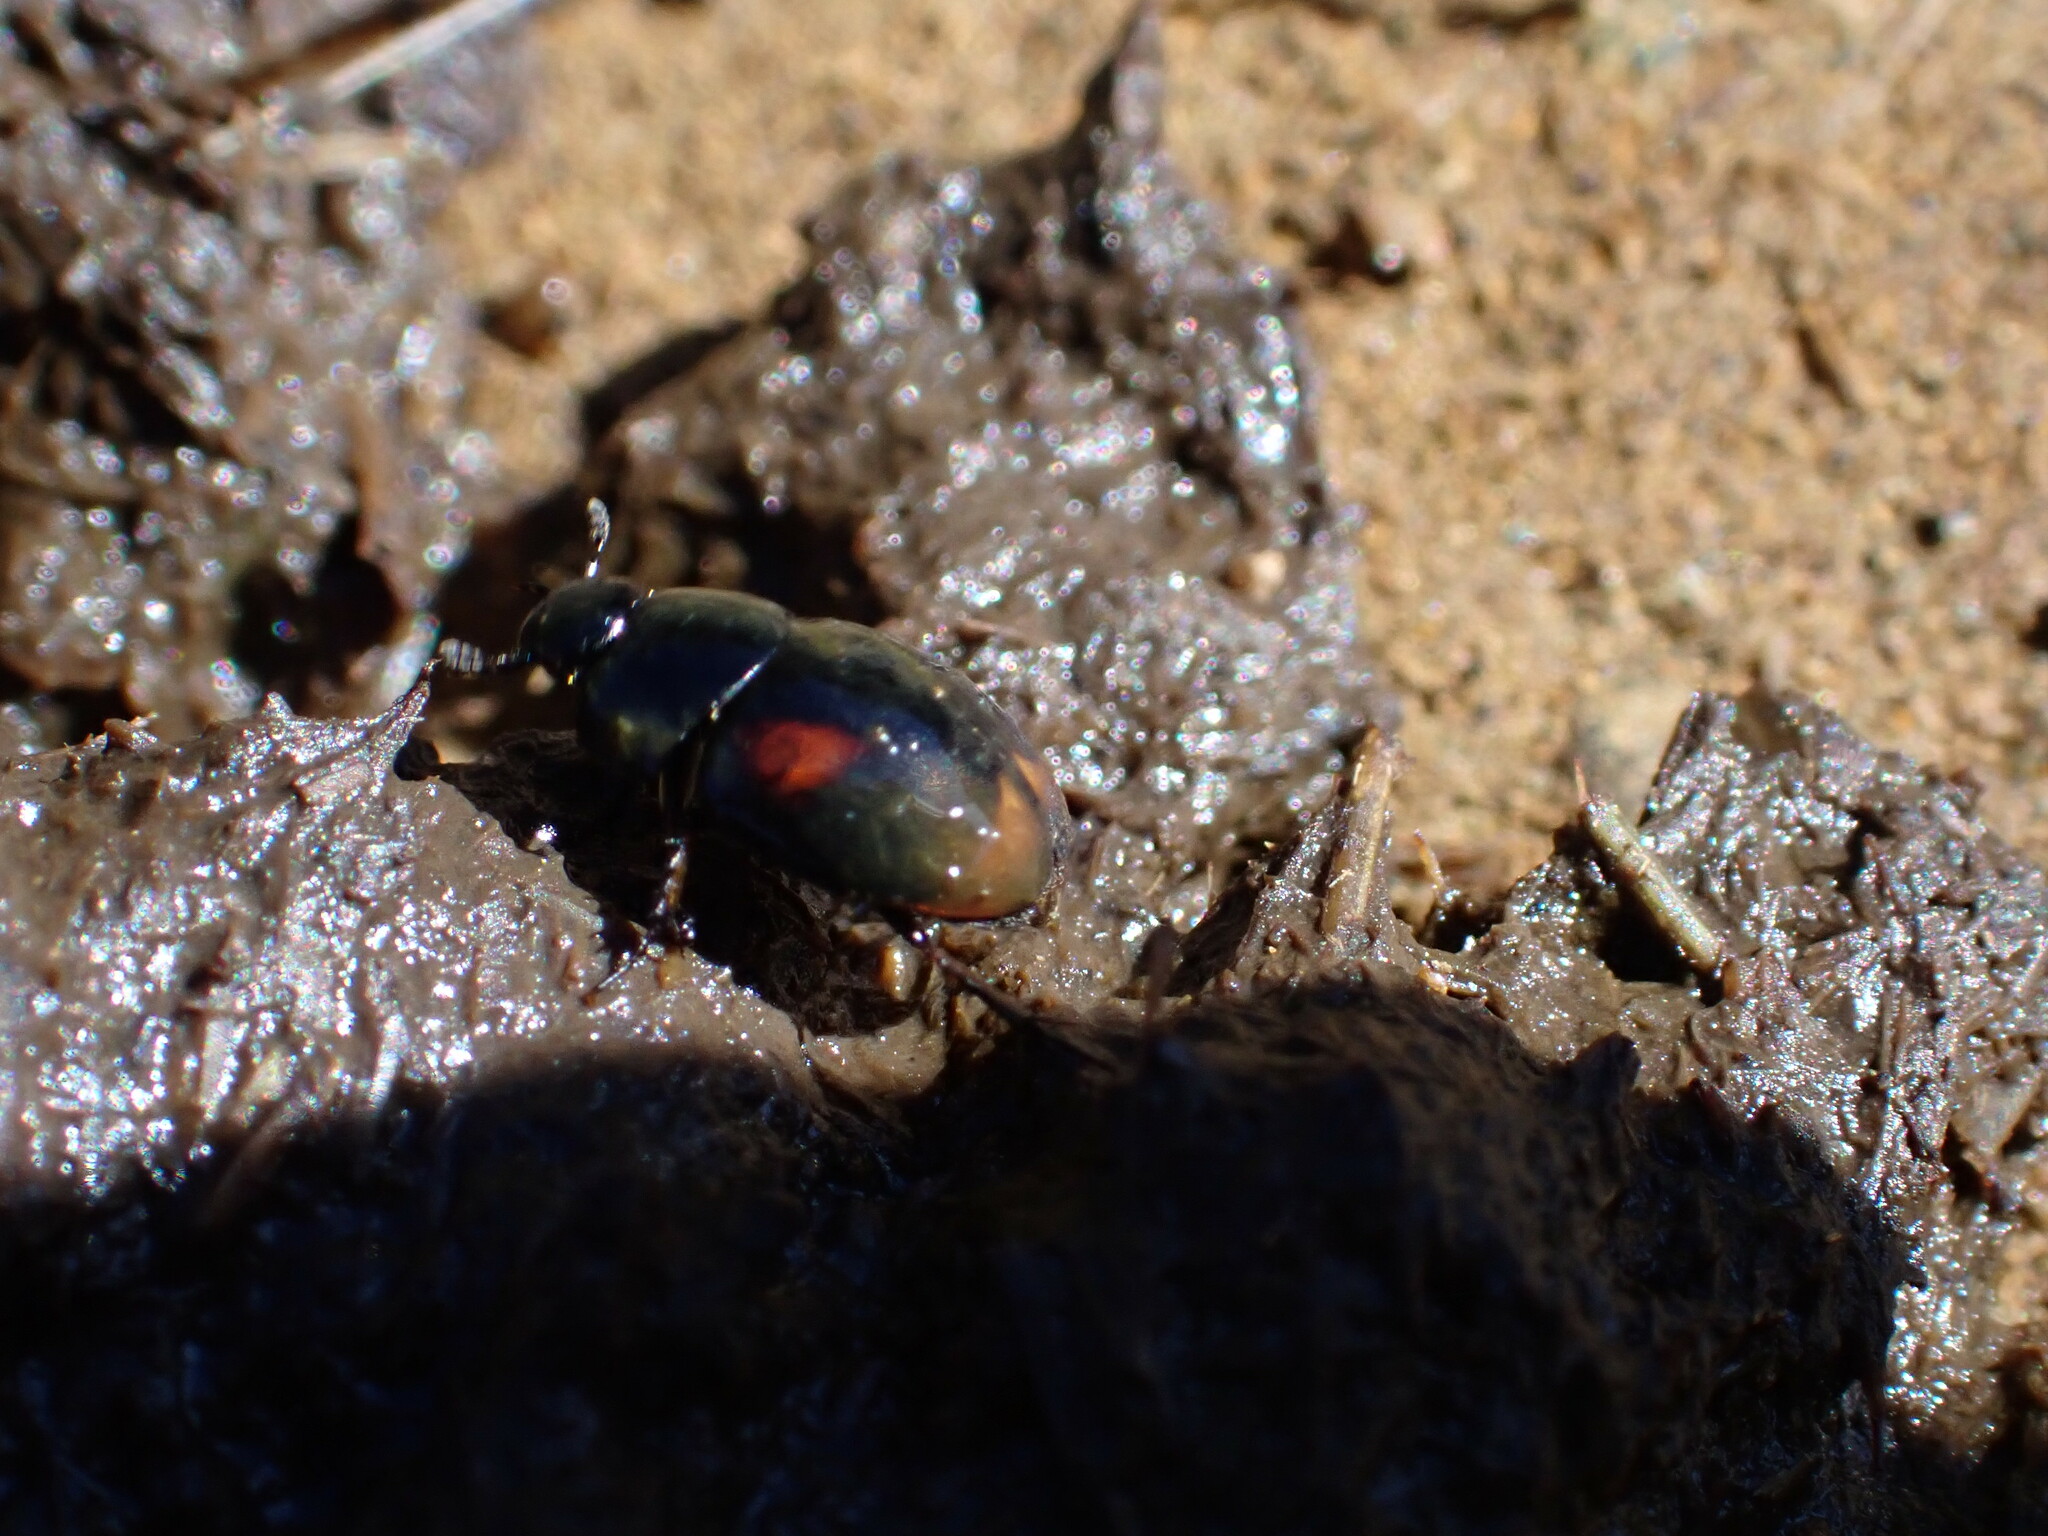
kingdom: Animalia
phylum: Arthropoda
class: Insecta
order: Coleoptera
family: Hydrophilidae
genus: Sphaeridium
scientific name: Sphaeridium scarabaeoides
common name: Water scavenger beetle
